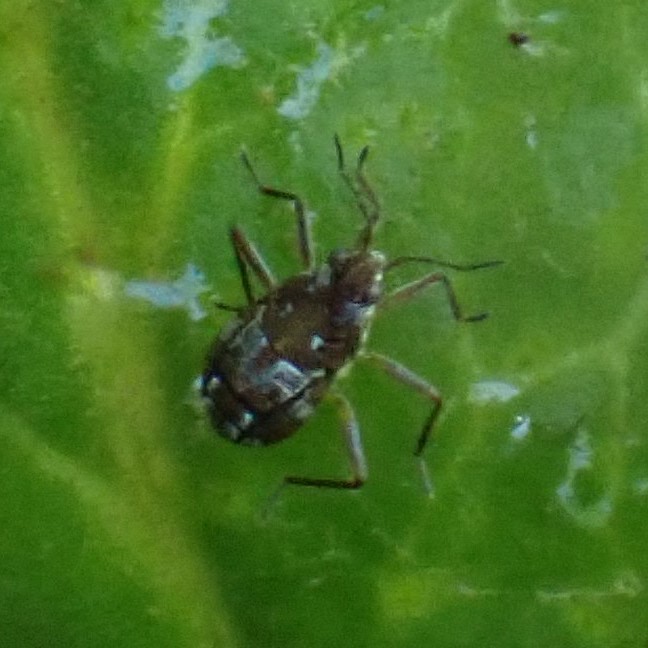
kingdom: Animalia
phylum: Arthropoda
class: Insecta
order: Hemiptera
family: Veliidae
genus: Microvelia
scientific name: Microvelia americana
